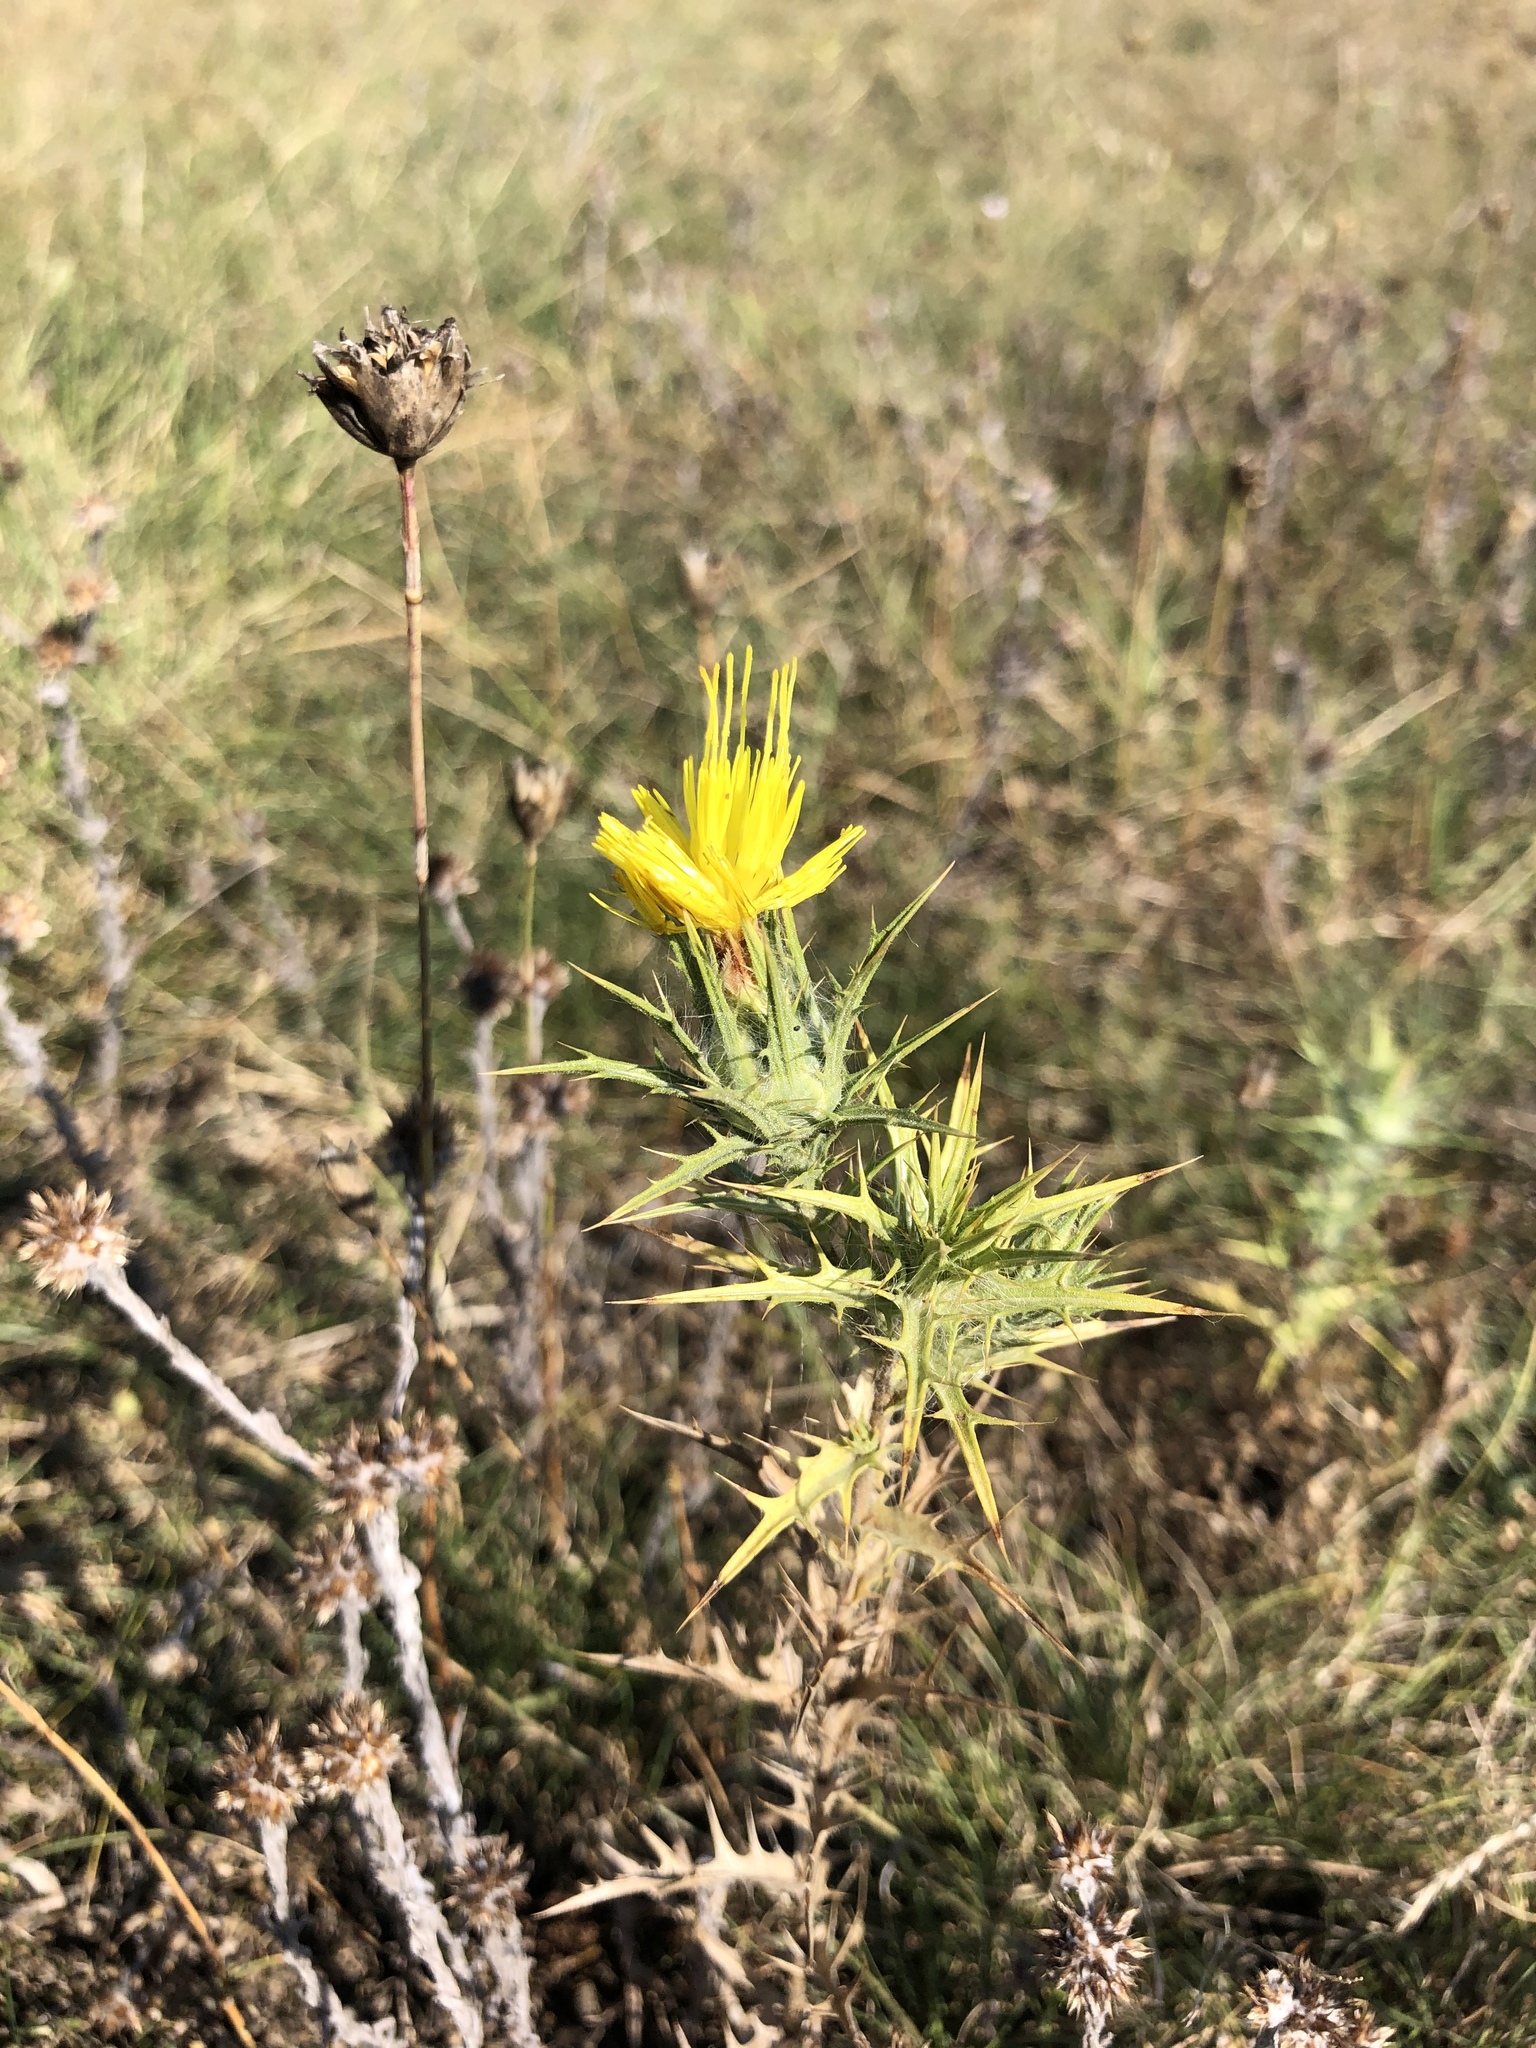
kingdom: Plantae
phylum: Tracheophyta
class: Magnoliopsida
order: Asterales
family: Asteraceae
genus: Carthamus
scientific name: Carthamus lanatus
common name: Downy safflower
